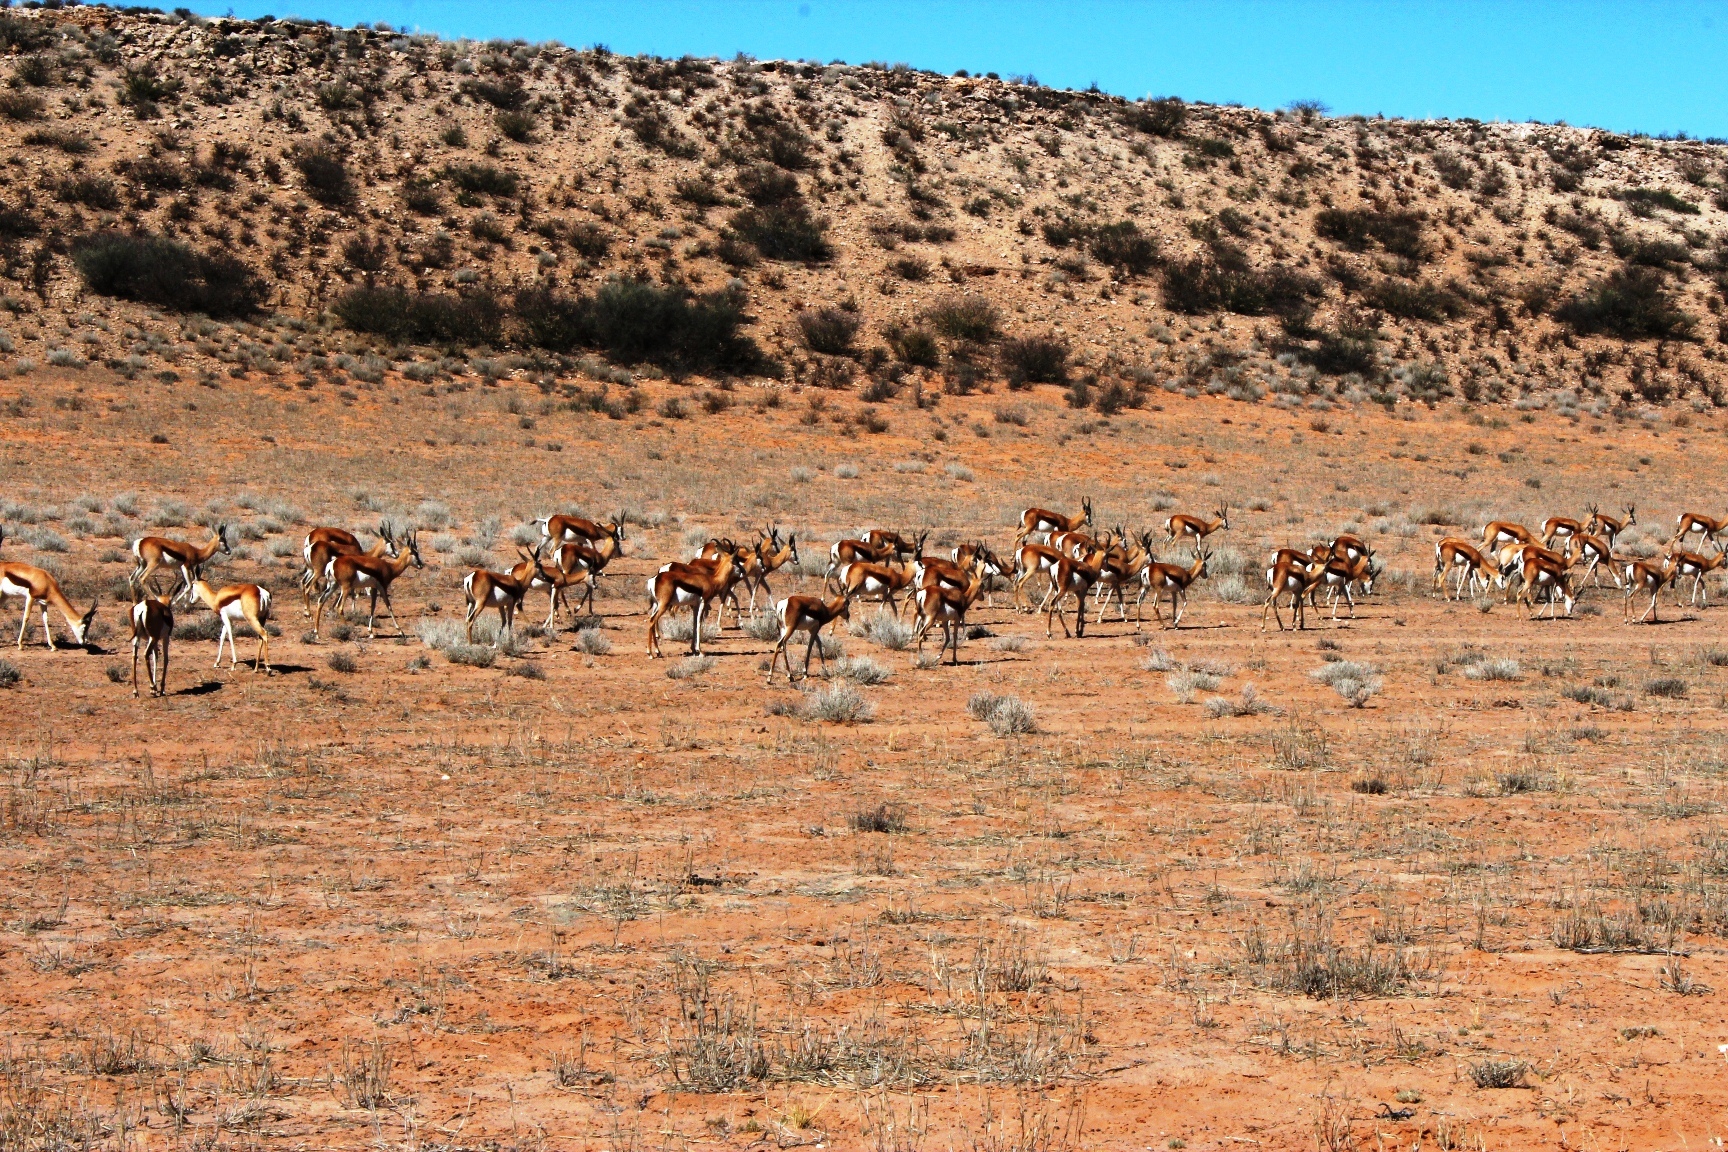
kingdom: Animalia
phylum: Chordata
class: Mammalia
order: Artiodactyla
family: Bovidae
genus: Antidorcas
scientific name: Antidorcas marsupialis
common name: Springbok
